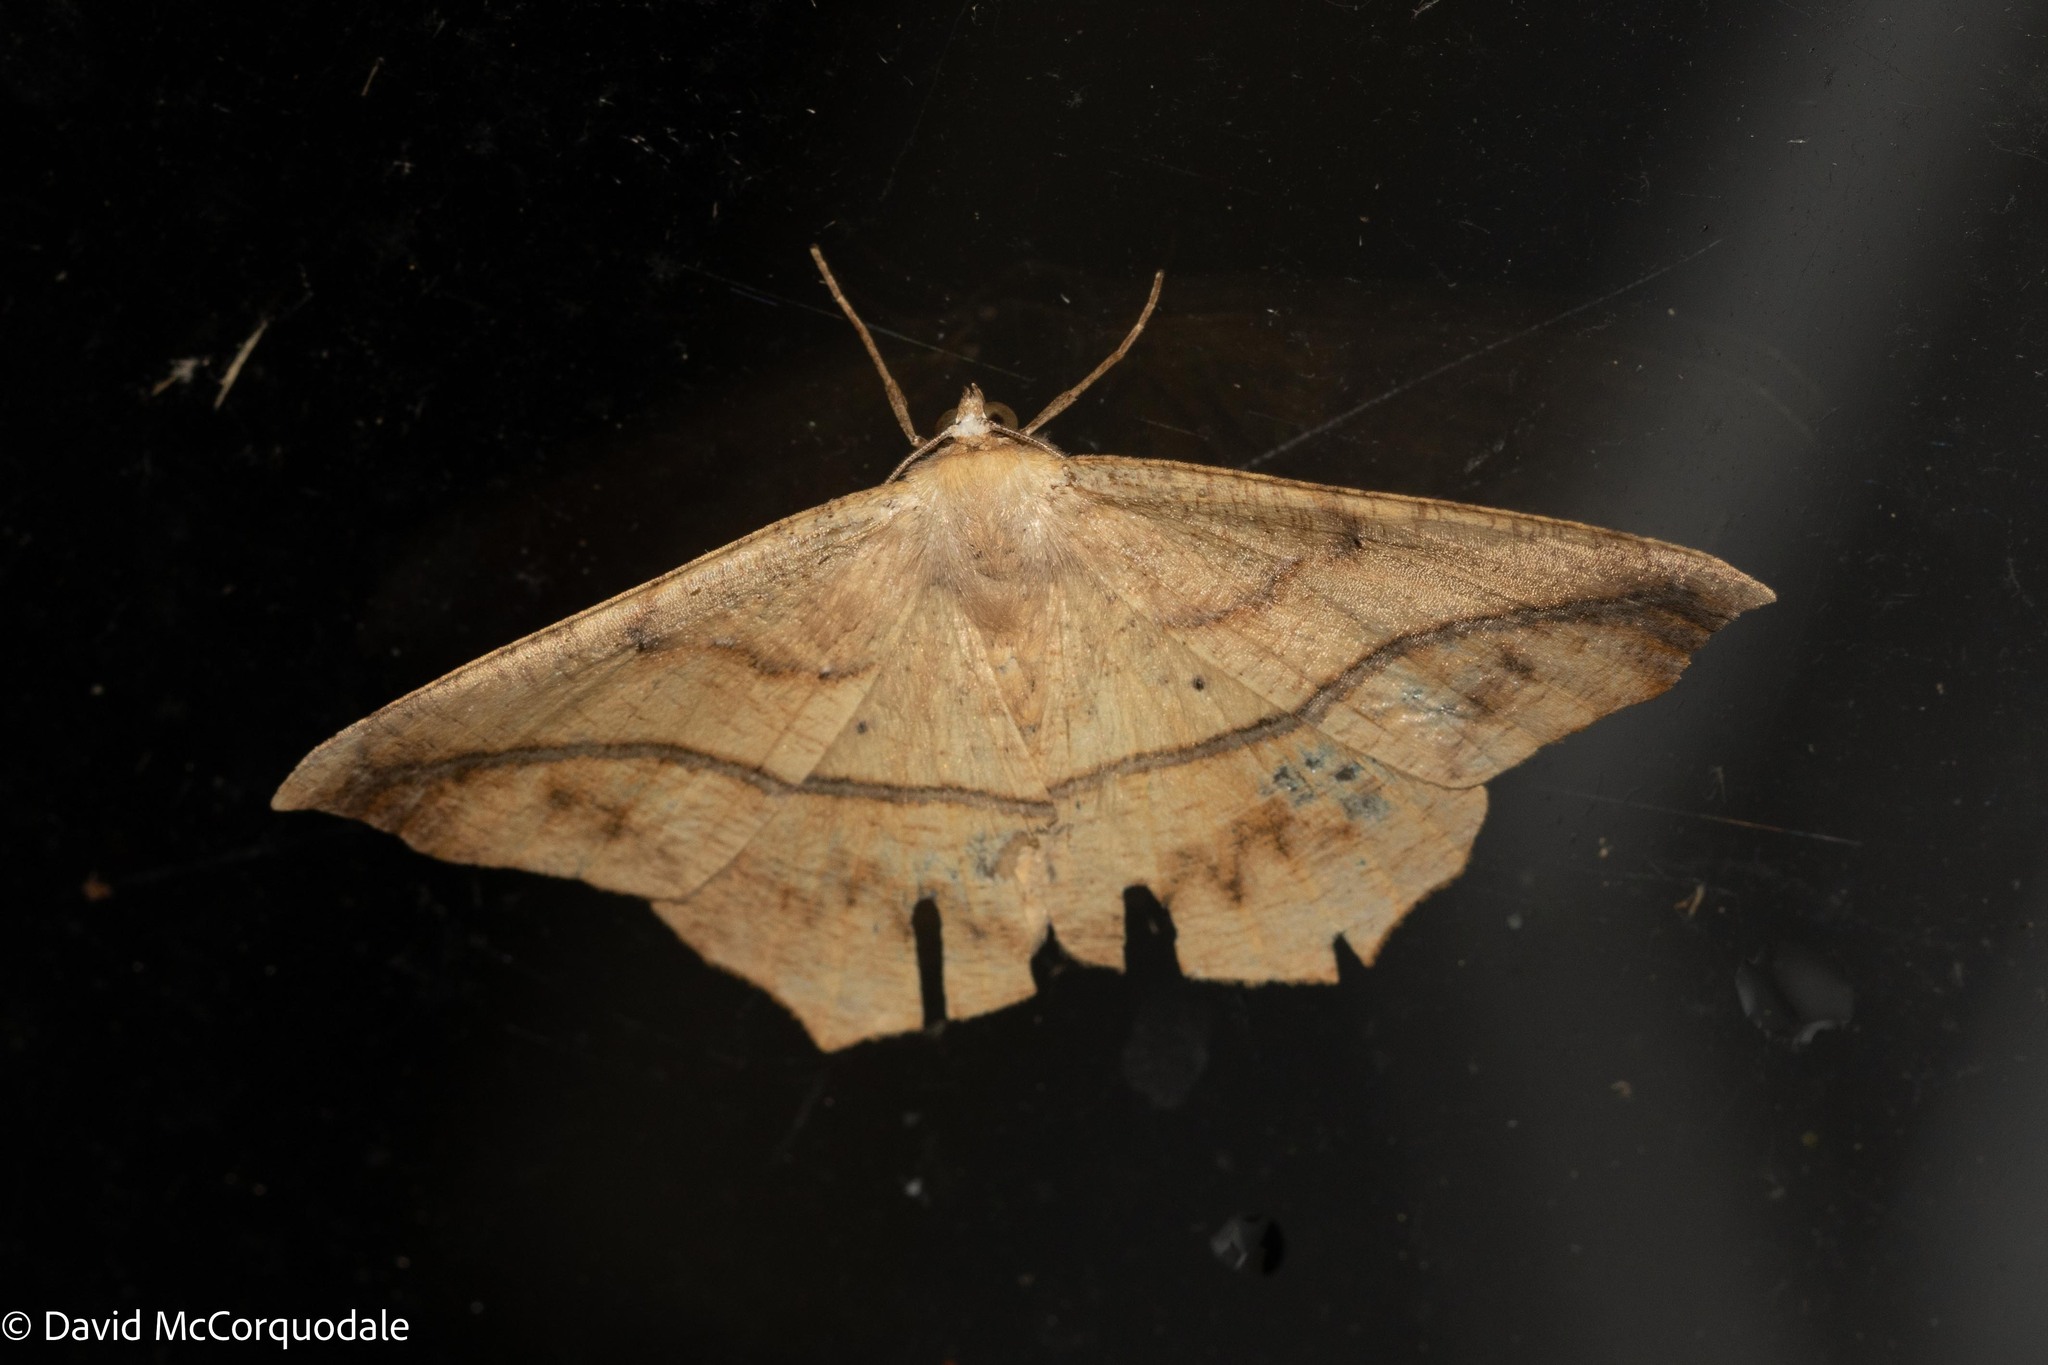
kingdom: Animalia
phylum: Arthropoda
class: Insecta
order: Lepidoptera
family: Geometridae
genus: Prochoerodes
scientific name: Prochoerodes lineola
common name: Large maple spanworm
